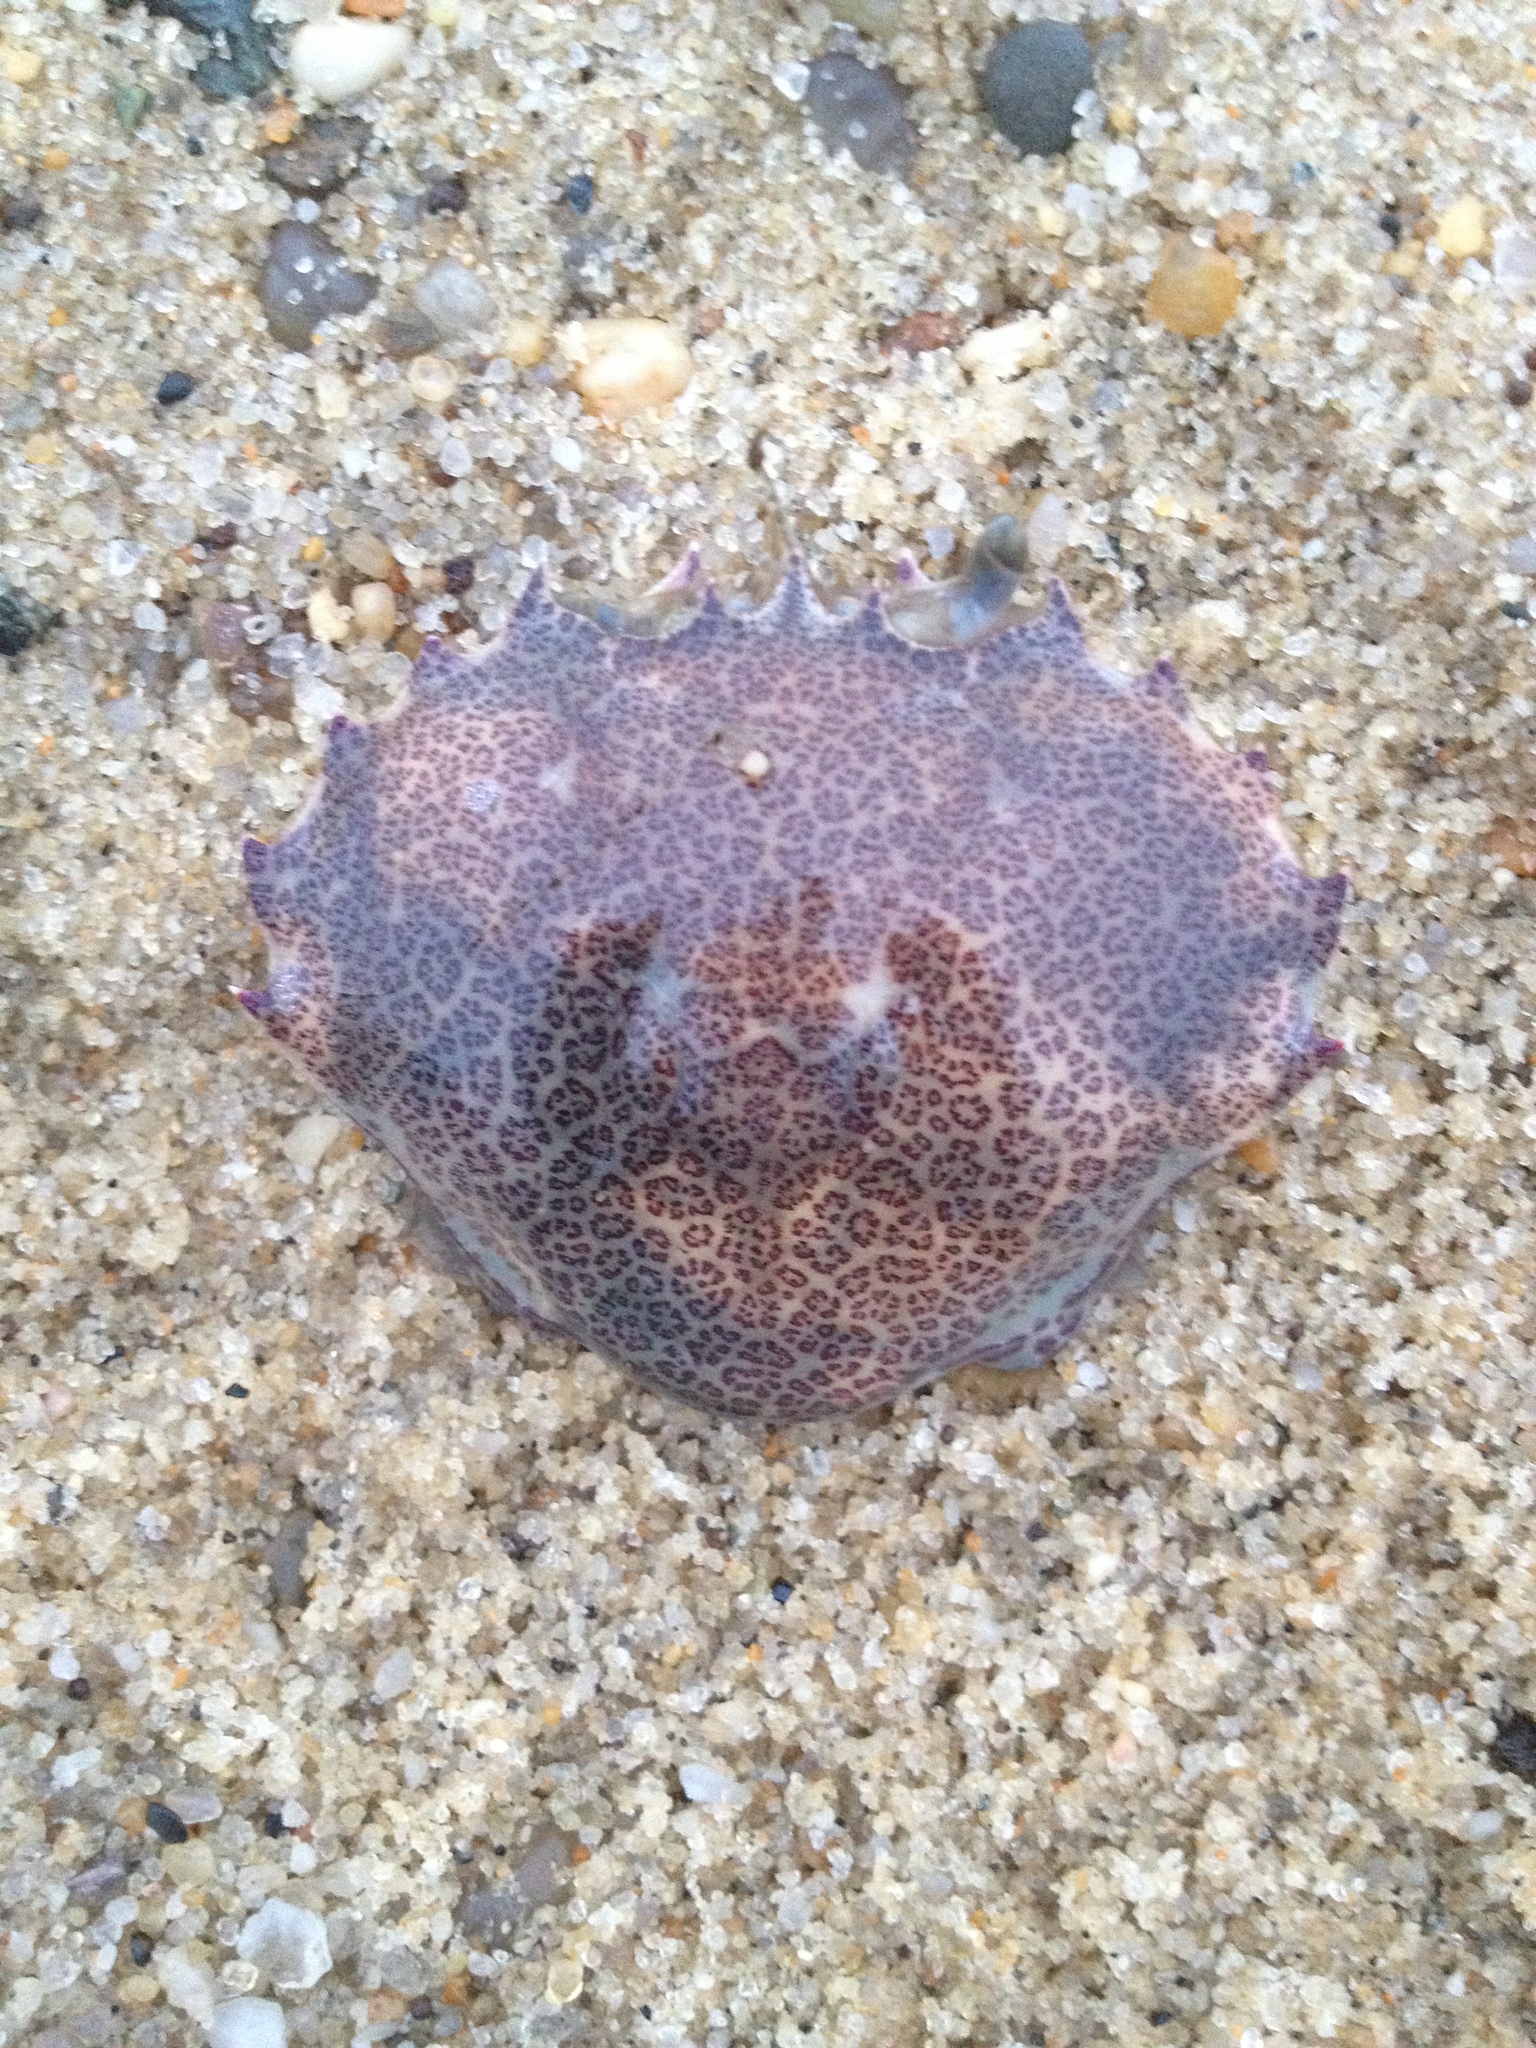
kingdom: Animalia
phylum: Arthropoda
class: Malacostraca
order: Decapoda
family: Ovalipidae
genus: Ovalipes
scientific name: Ovalipes ocellatus
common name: Lady crab
